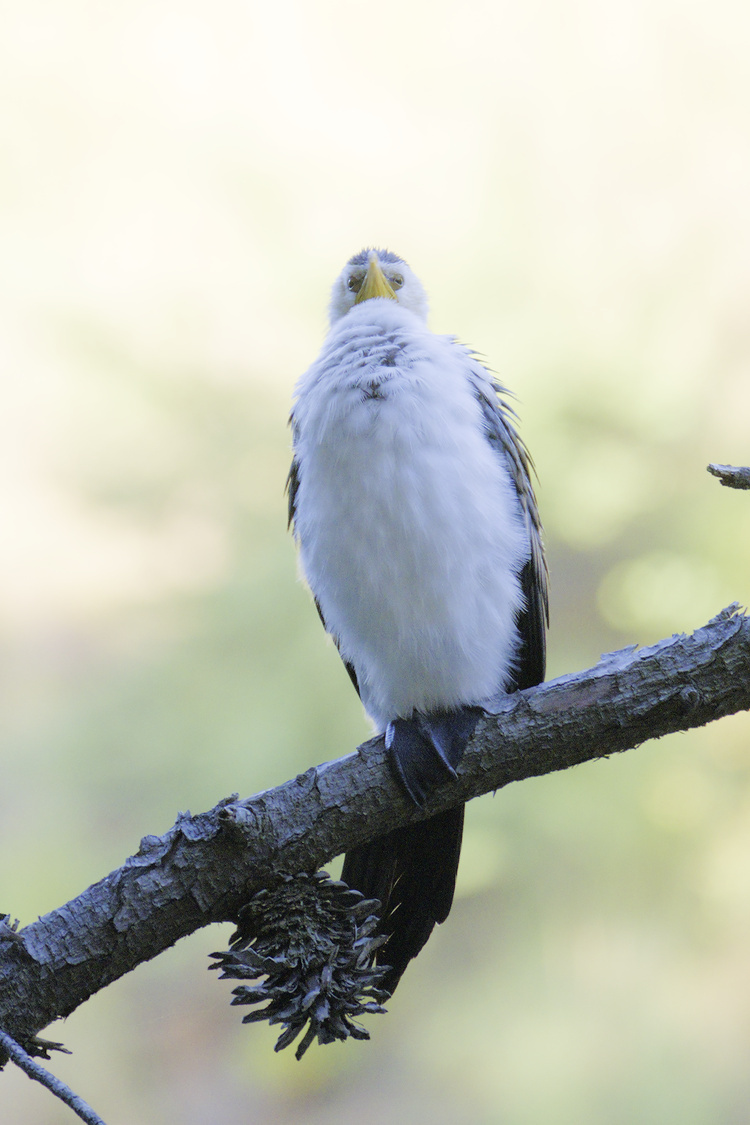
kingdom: Animalia
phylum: Chordata
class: Aves
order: Suliformes
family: Phalacrocoracidae
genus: Microcarbo
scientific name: Microcarbo melanoleucos
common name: Little pied cormorant
